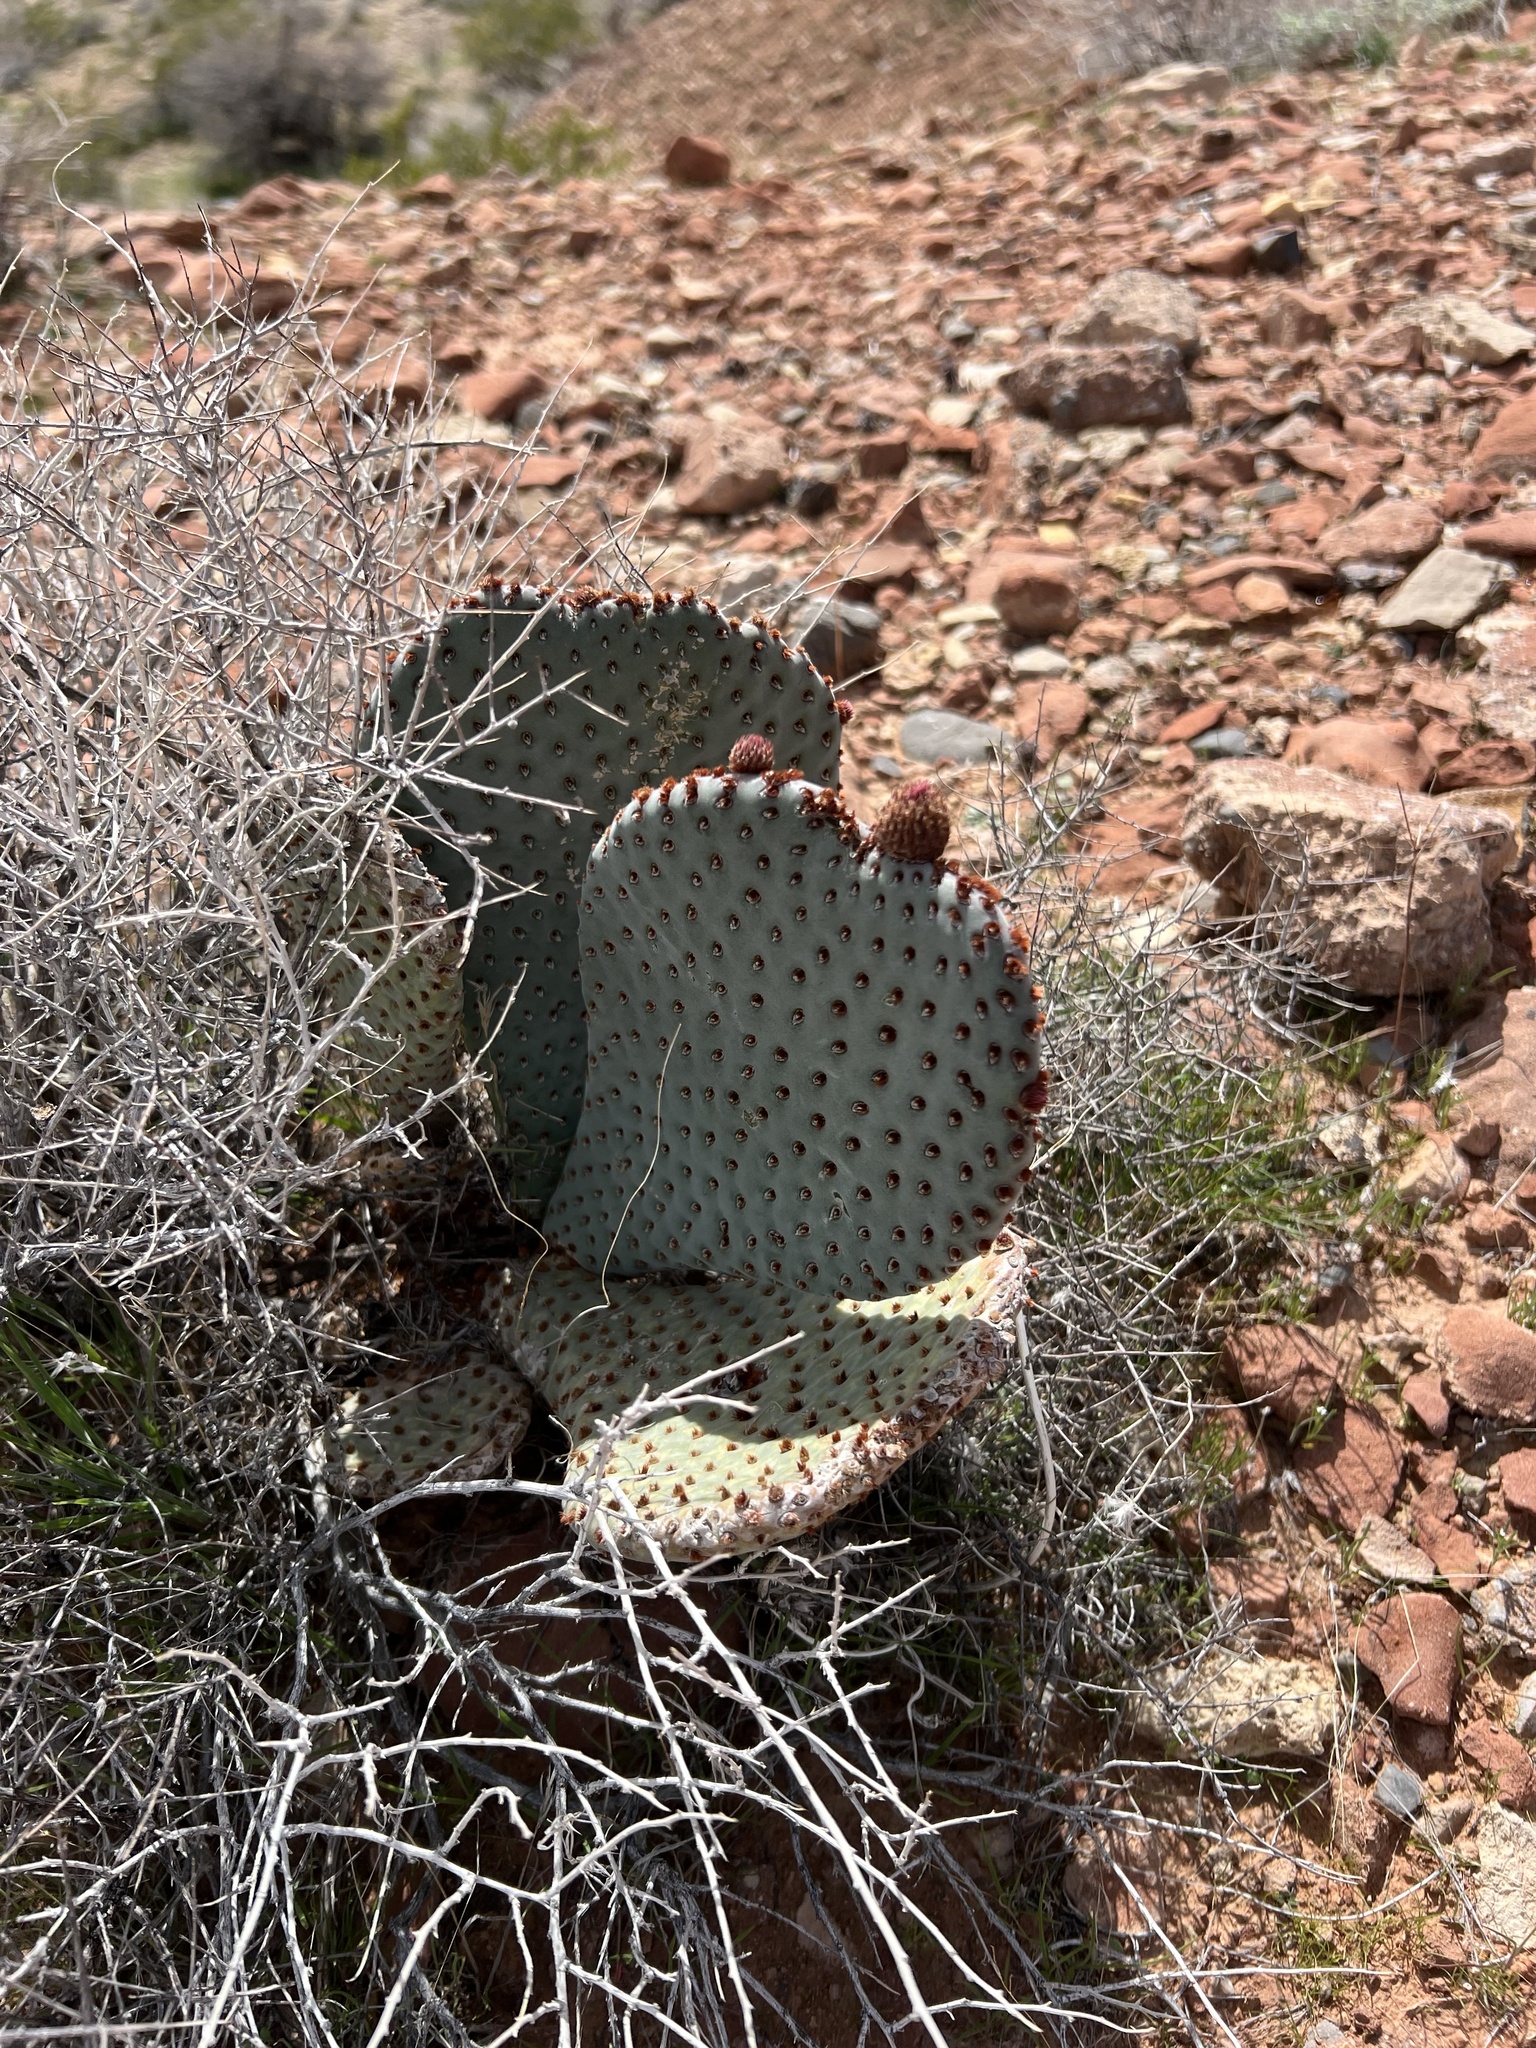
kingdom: Plantae
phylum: Tracheophyta
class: Magnoliopsida
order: Caryophyllales
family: Cactaceae
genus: Opuntia
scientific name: Opuntia basilaris
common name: Beavertail prickly-pear
